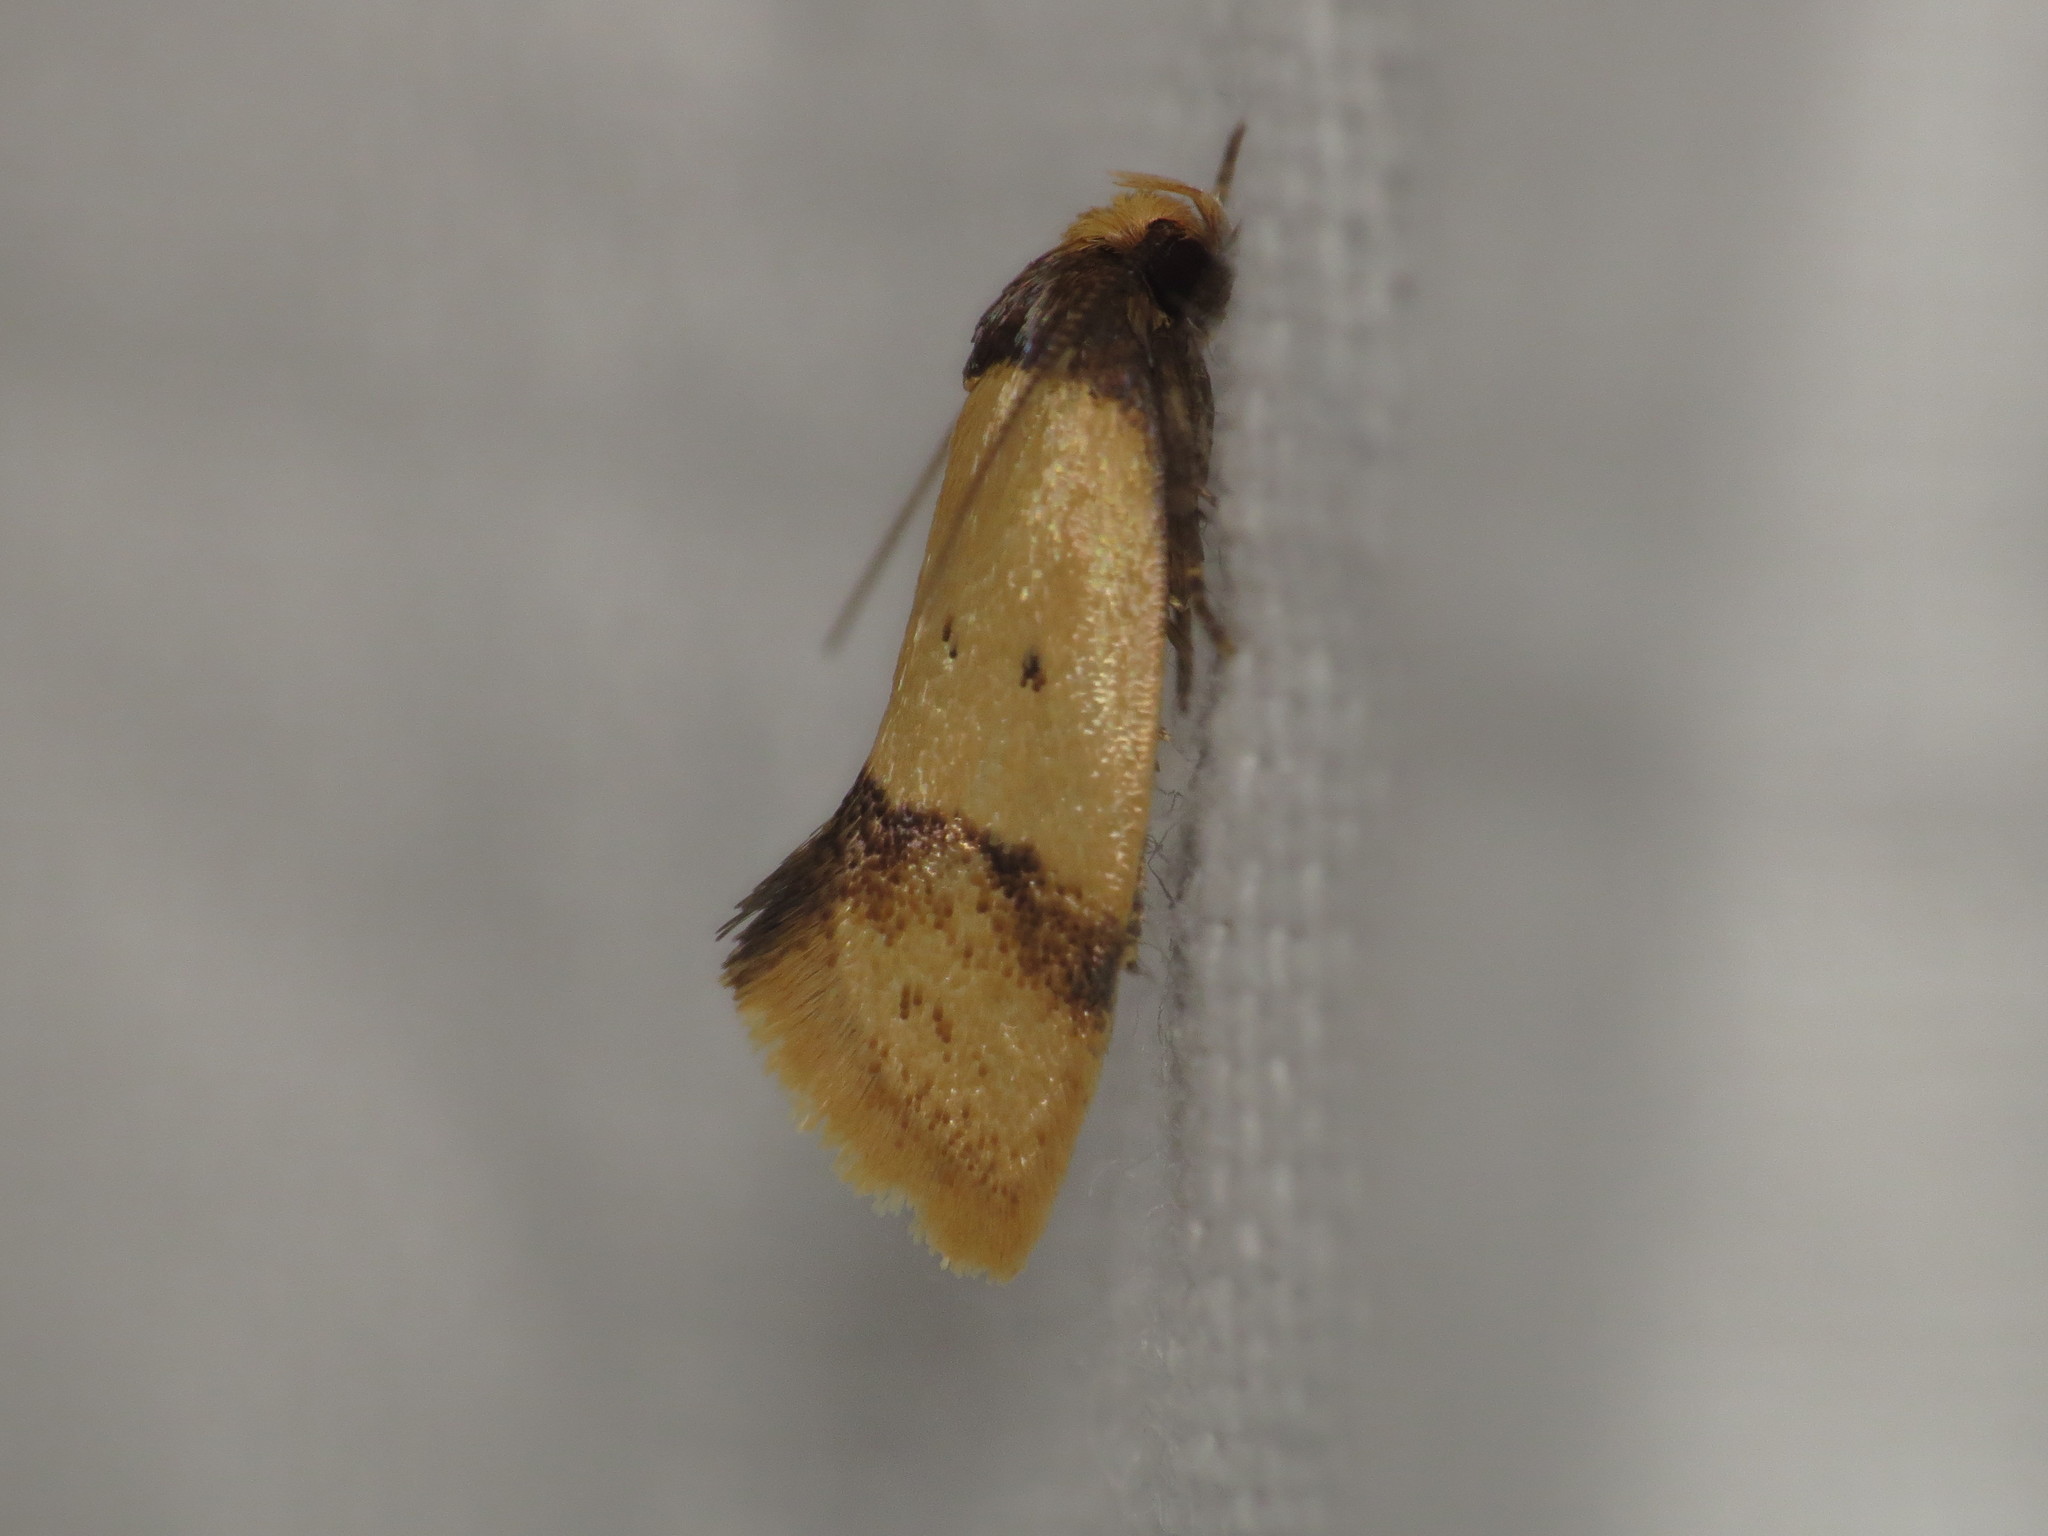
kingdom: Animalia
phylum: Arthropoda
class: Insecta
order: Lepidoptera
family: Oecophoridae
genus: Olbonoma
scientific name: Olbonoma disticta
